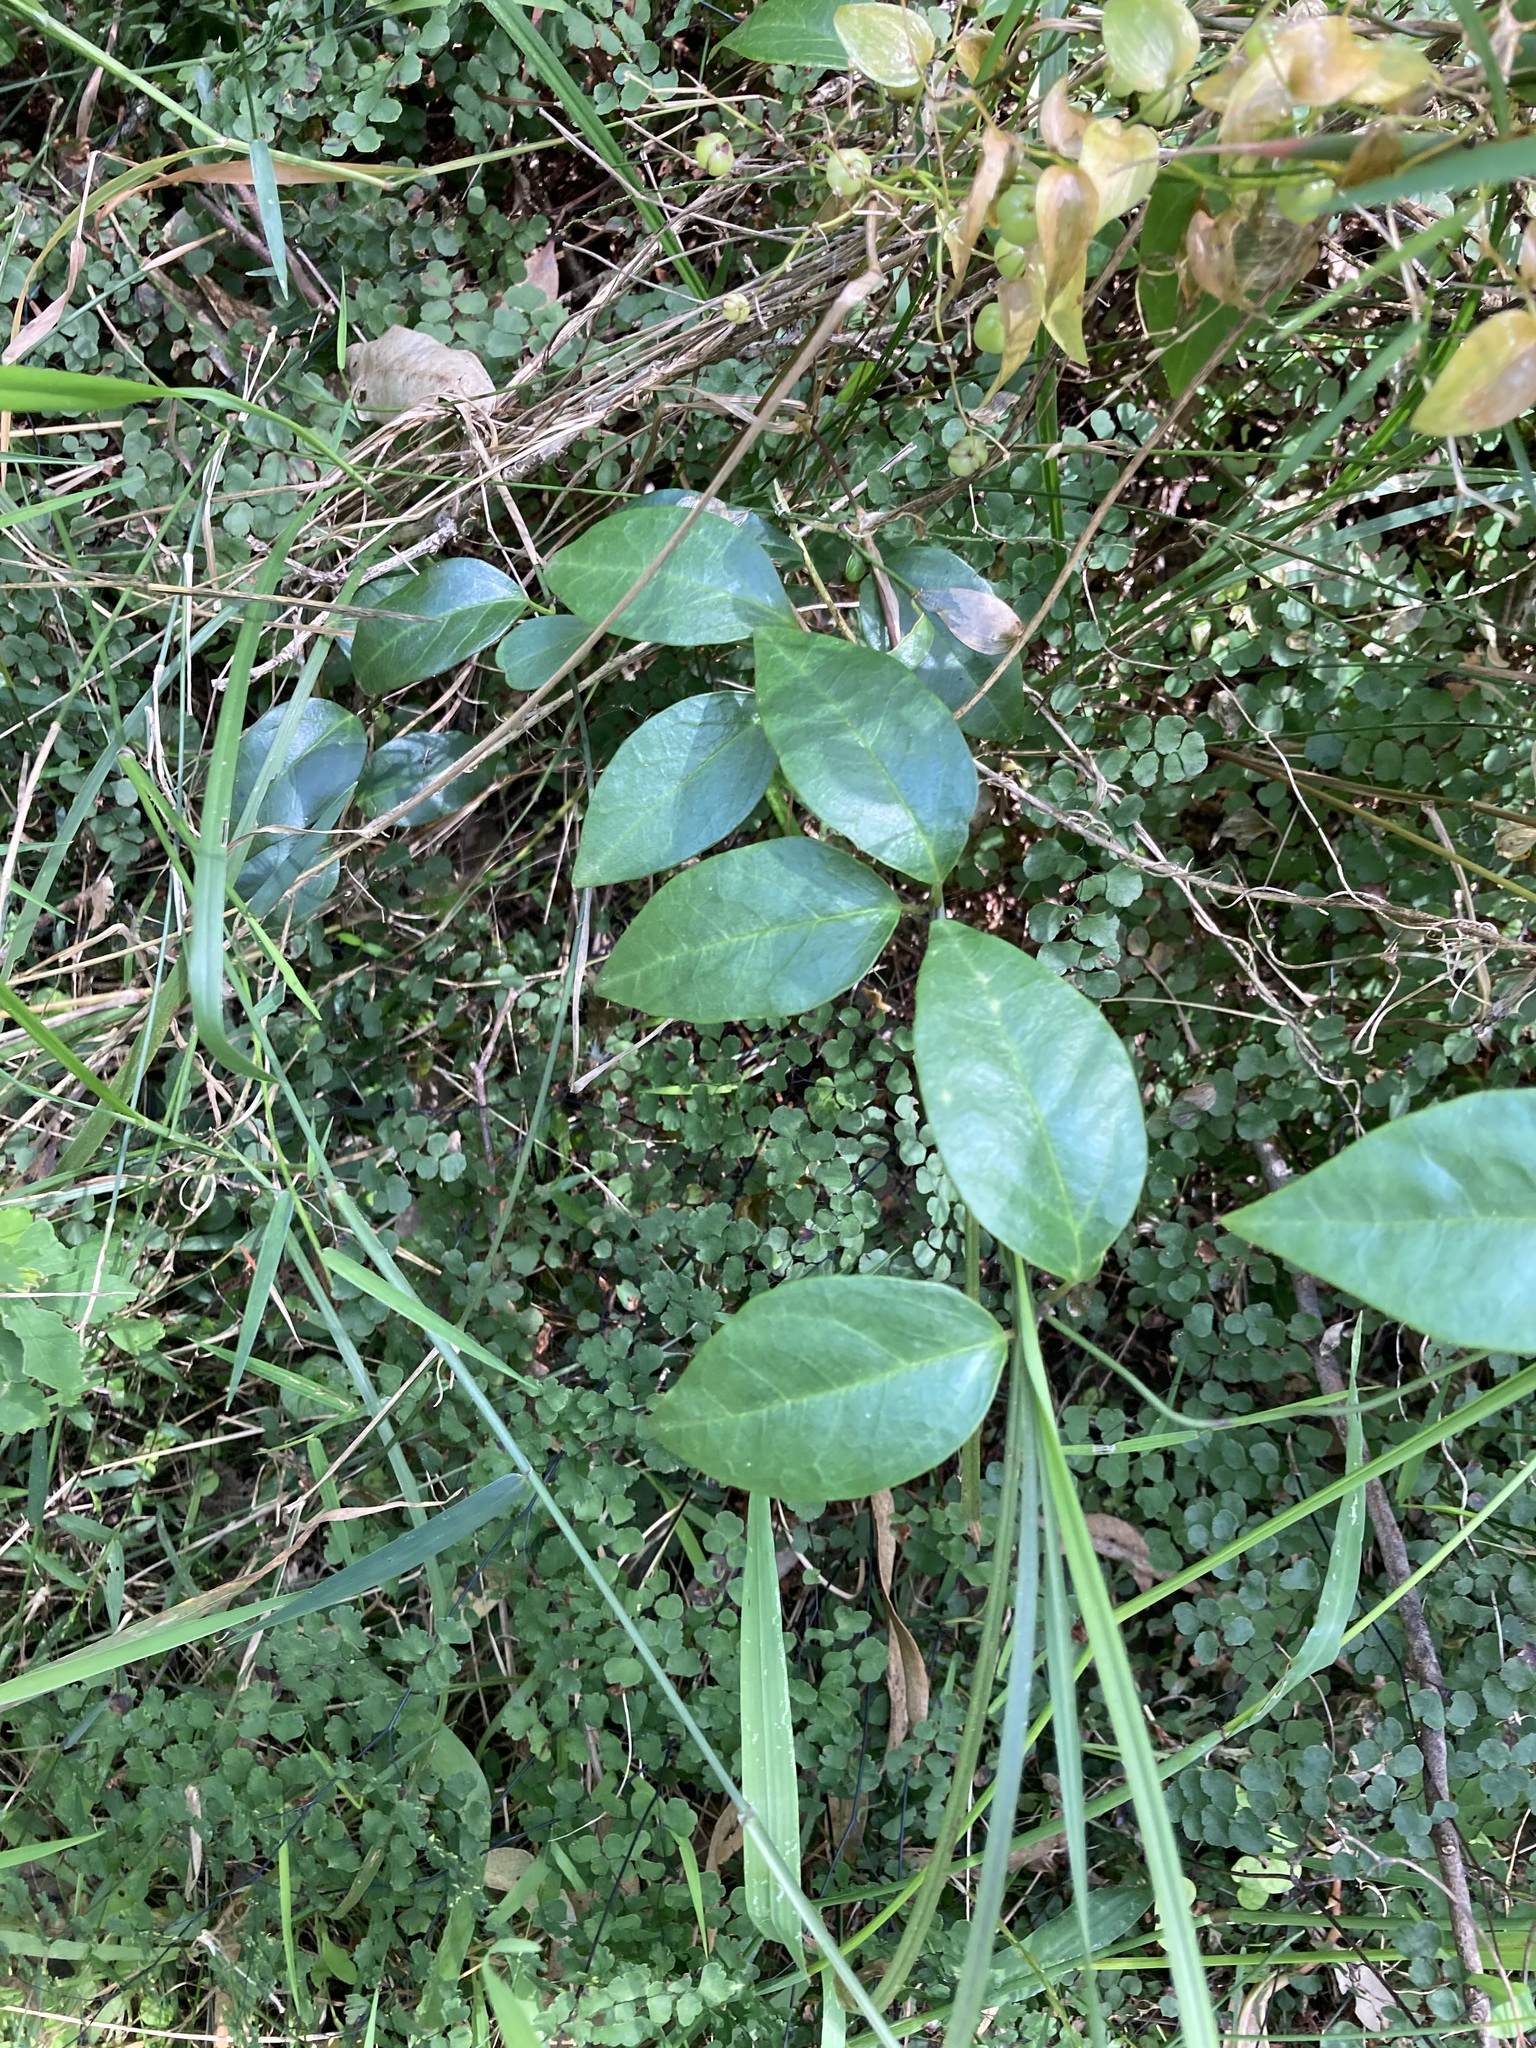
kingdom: Plantae
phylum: Tracheophyta
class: Magnoliopsida
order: Gentianales
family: Apocynaceae
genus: Vincetoxicum
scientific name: Vincetoxicum barbatum
